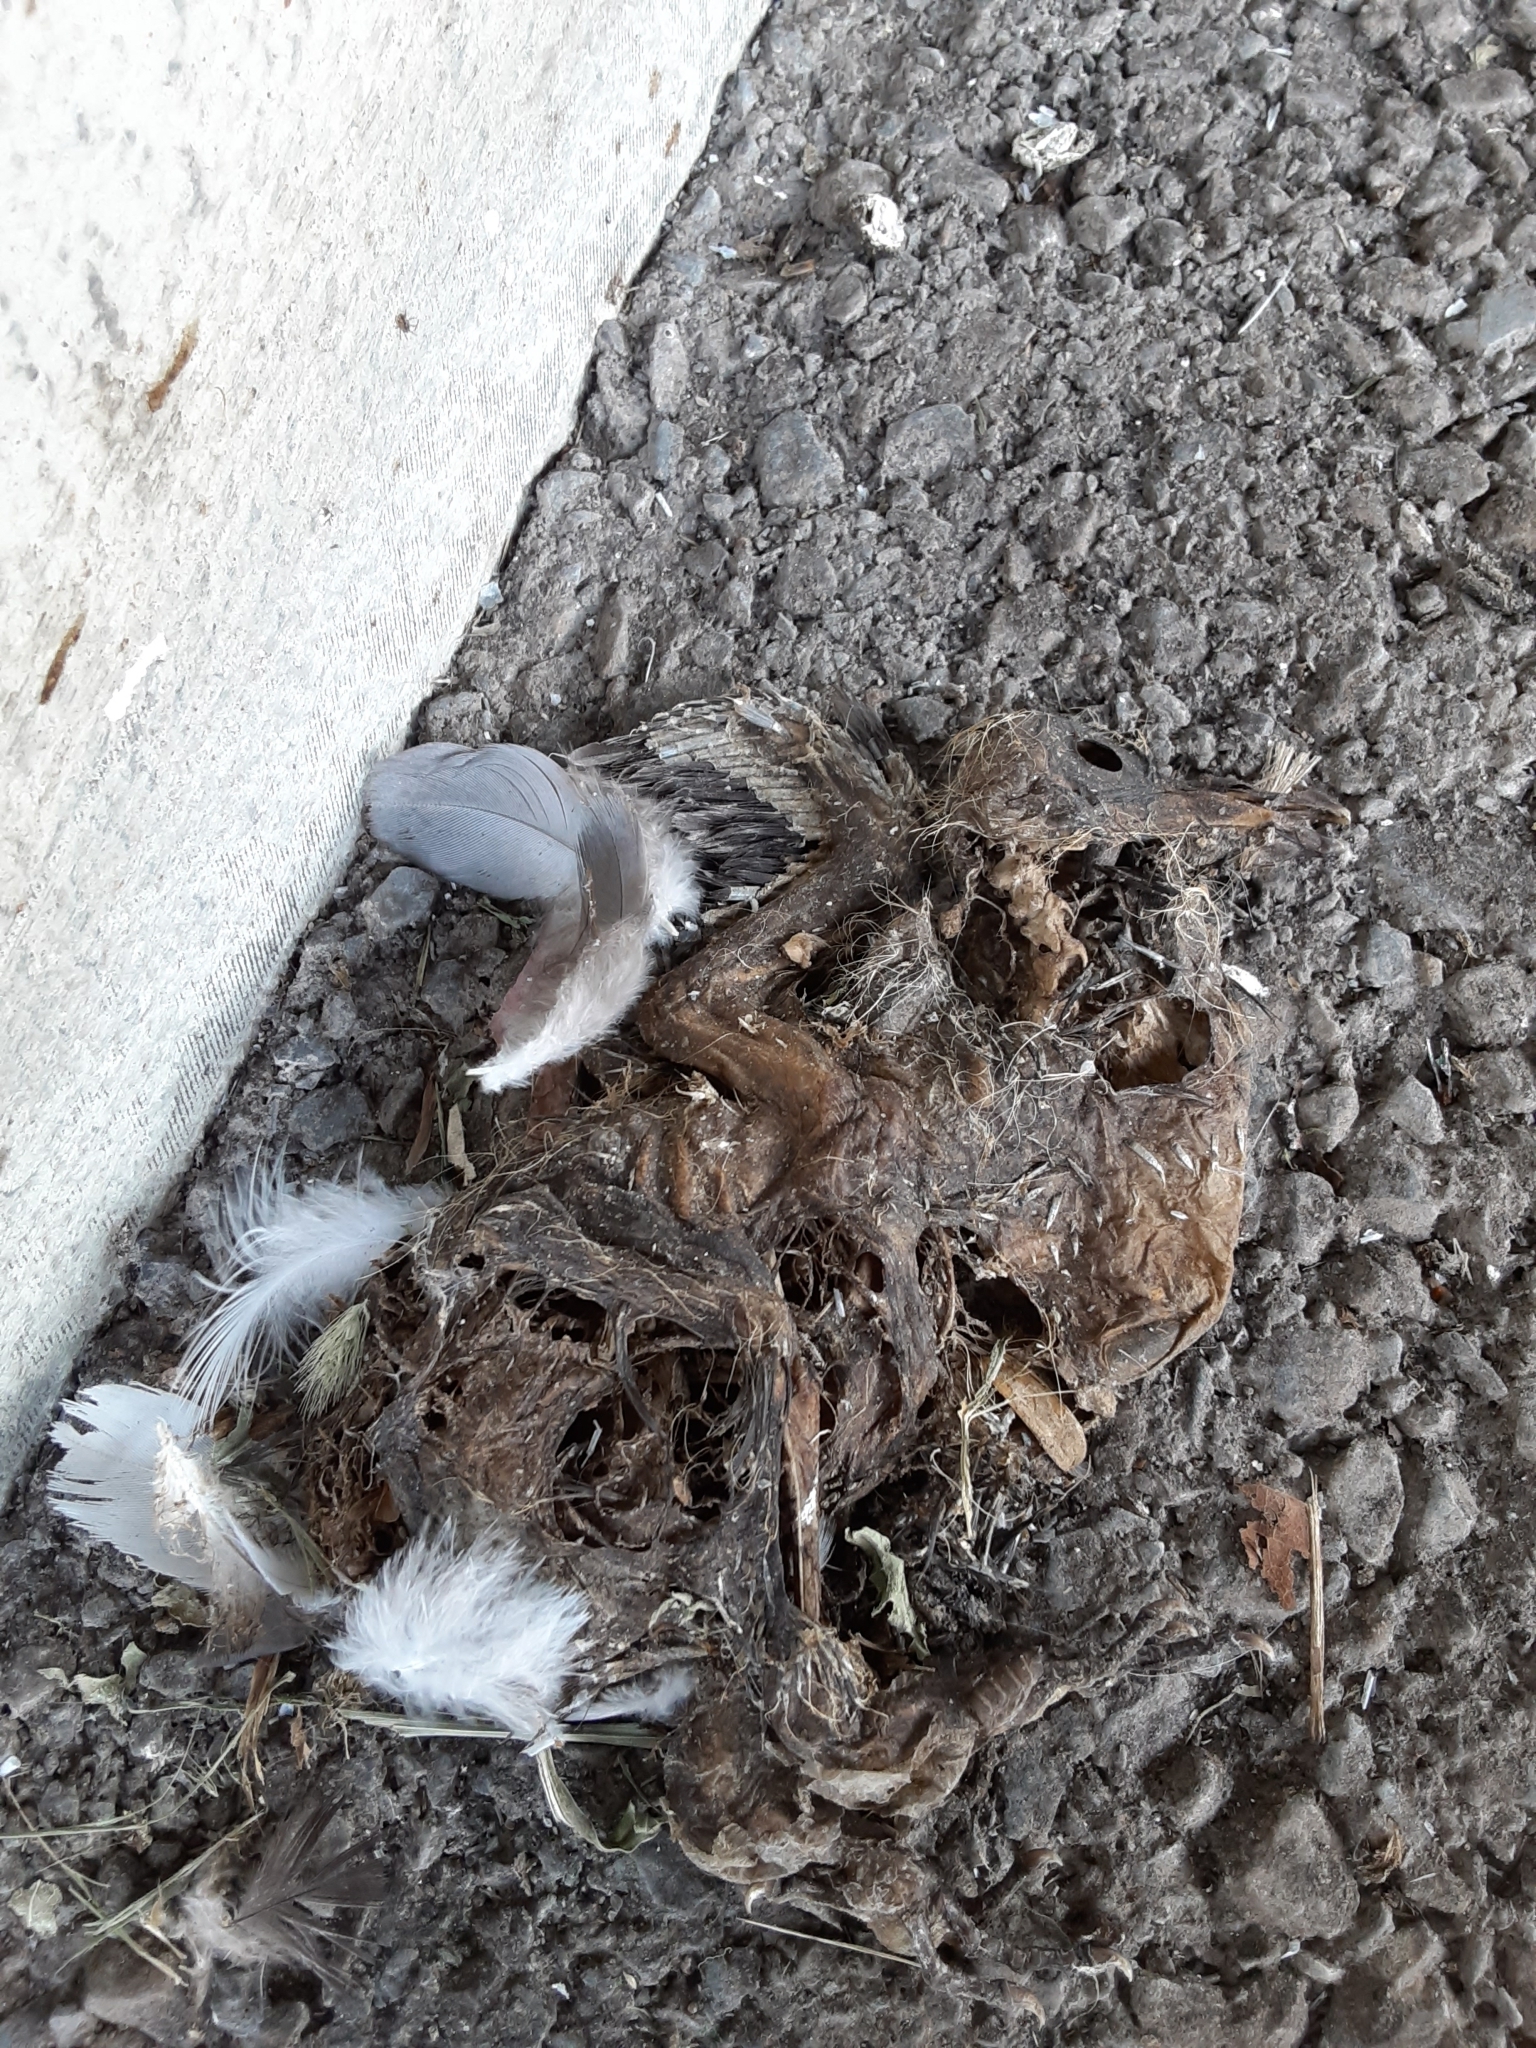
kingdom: Animalia
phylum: Chordata
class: Aves
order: Columbiformes
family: Columbidae
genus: Columba
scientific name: Columba livia
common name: Rock pigeon
